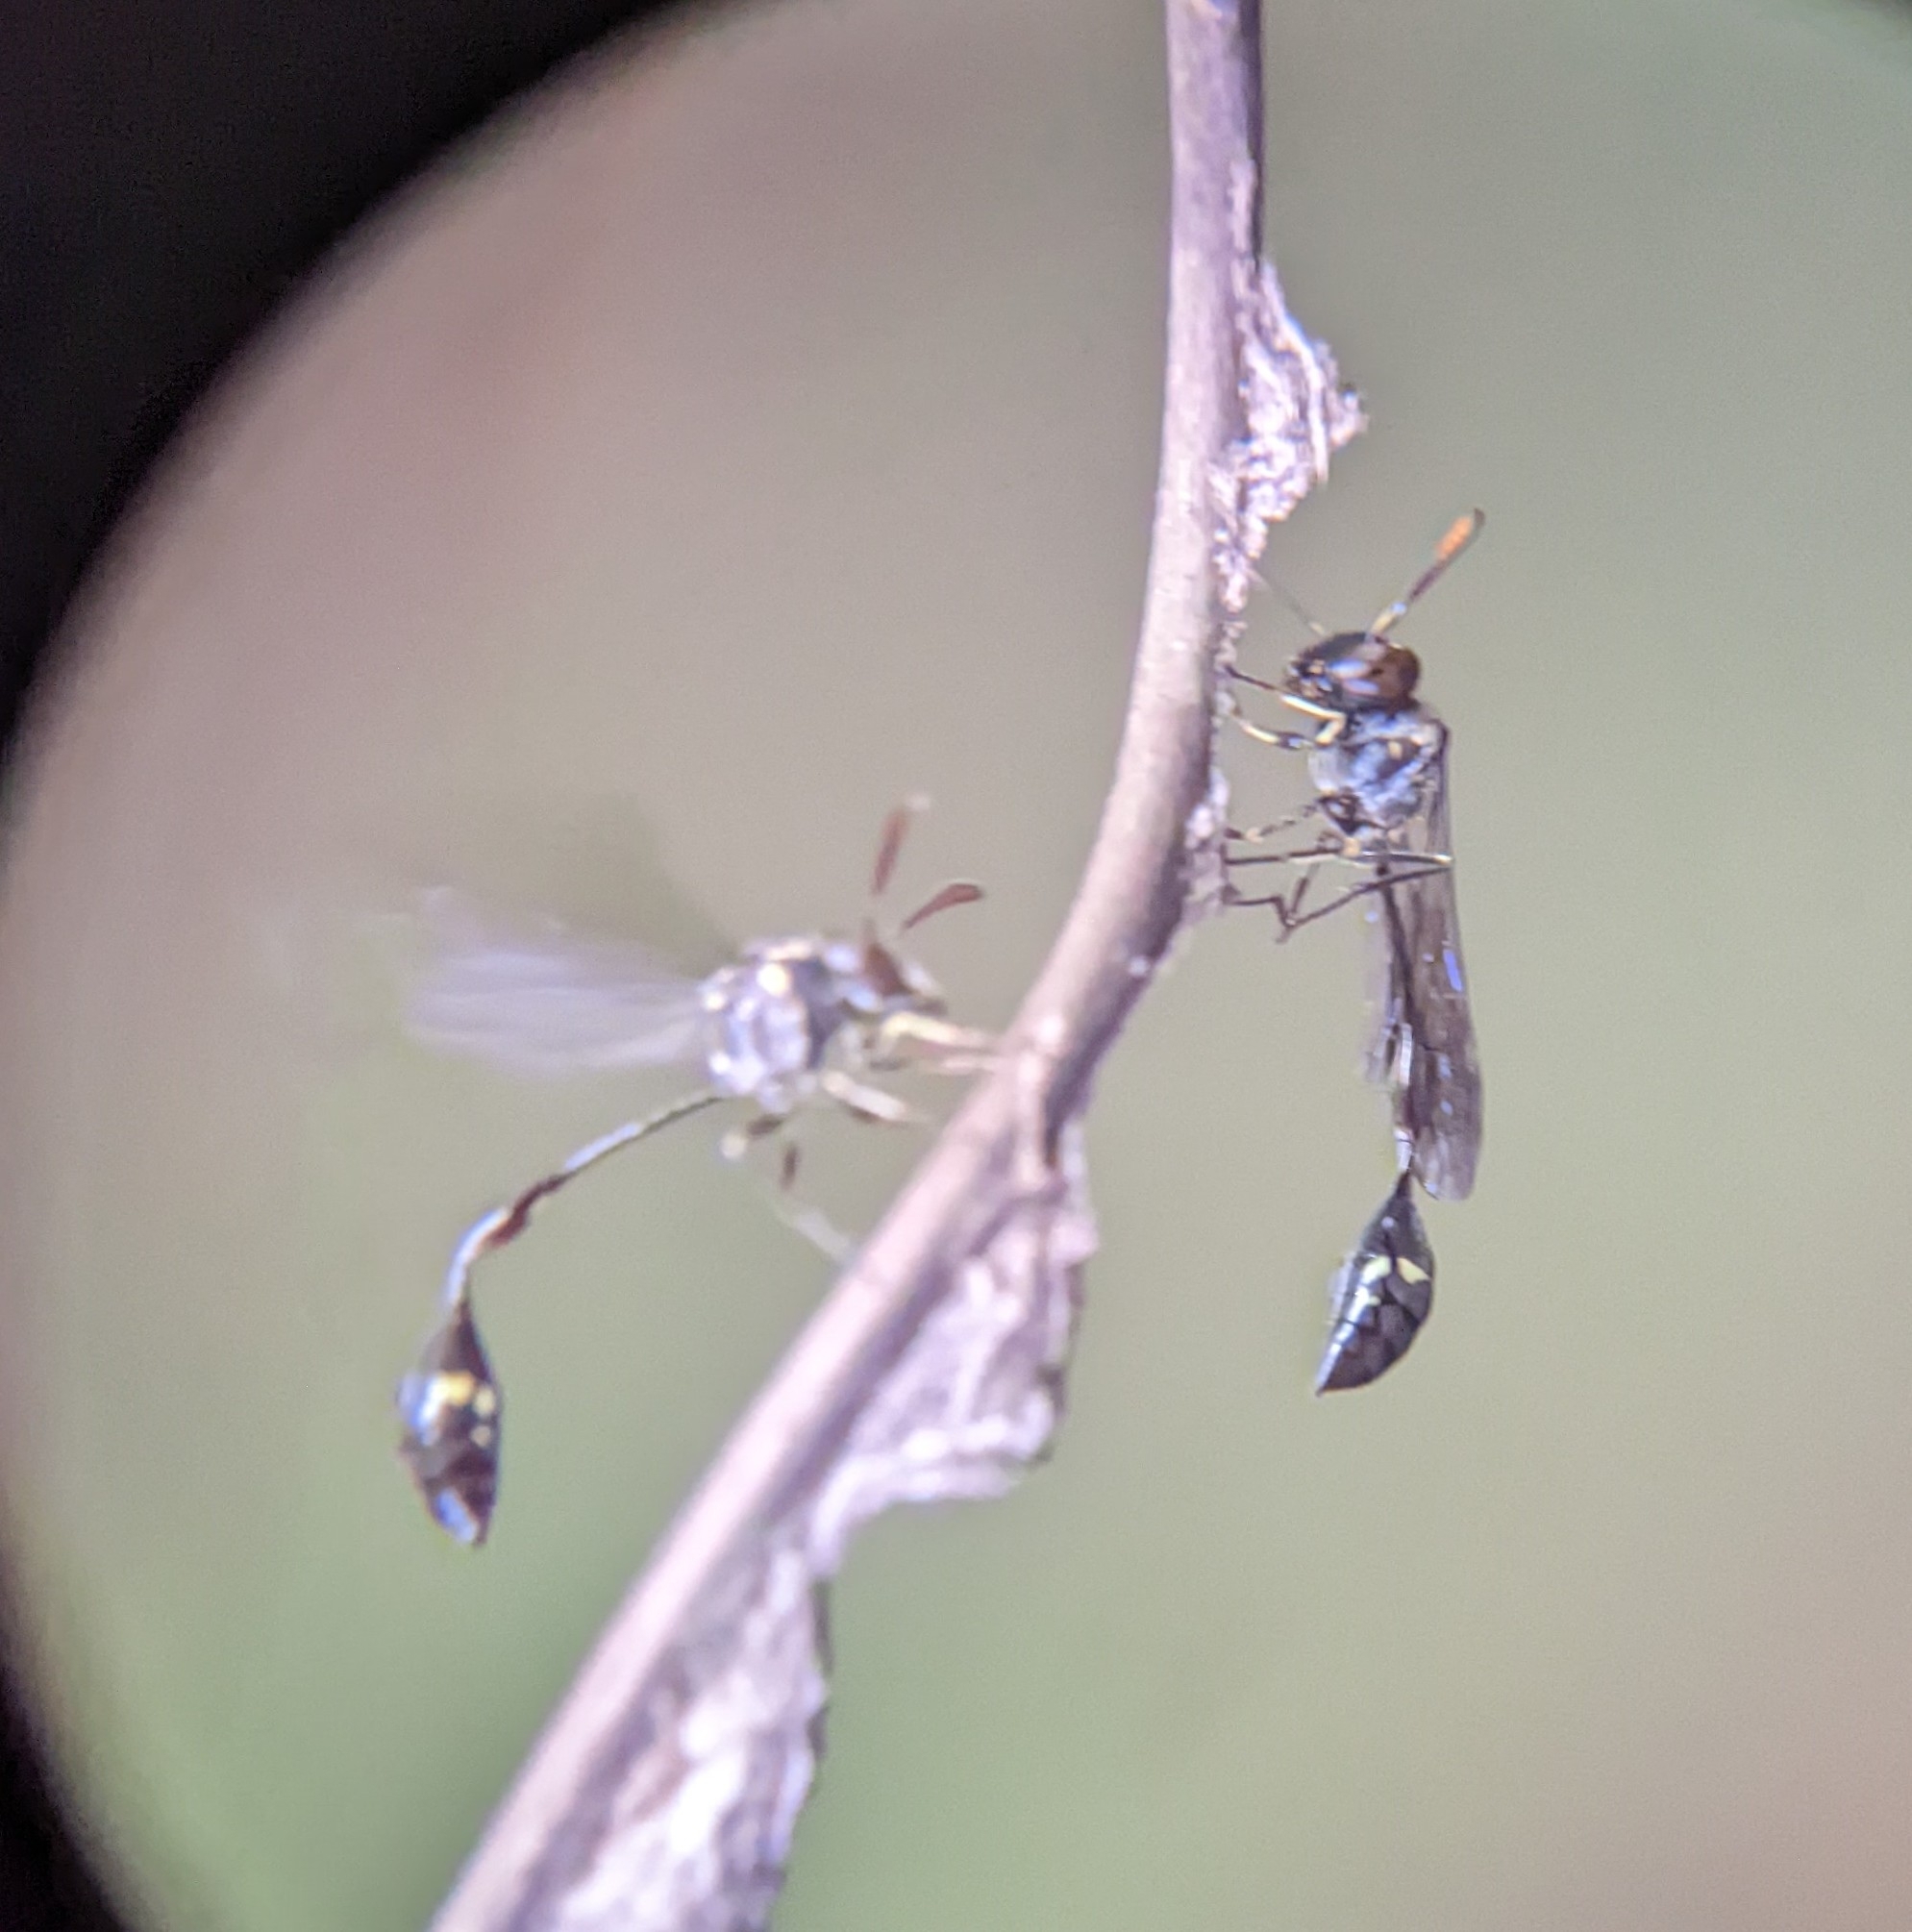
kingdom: Animalia
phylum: Arthropoda
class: Insecta
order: Hymenoptera
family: Vespidae
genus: Parischnogaster
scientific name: Parischnogaster nigricans
